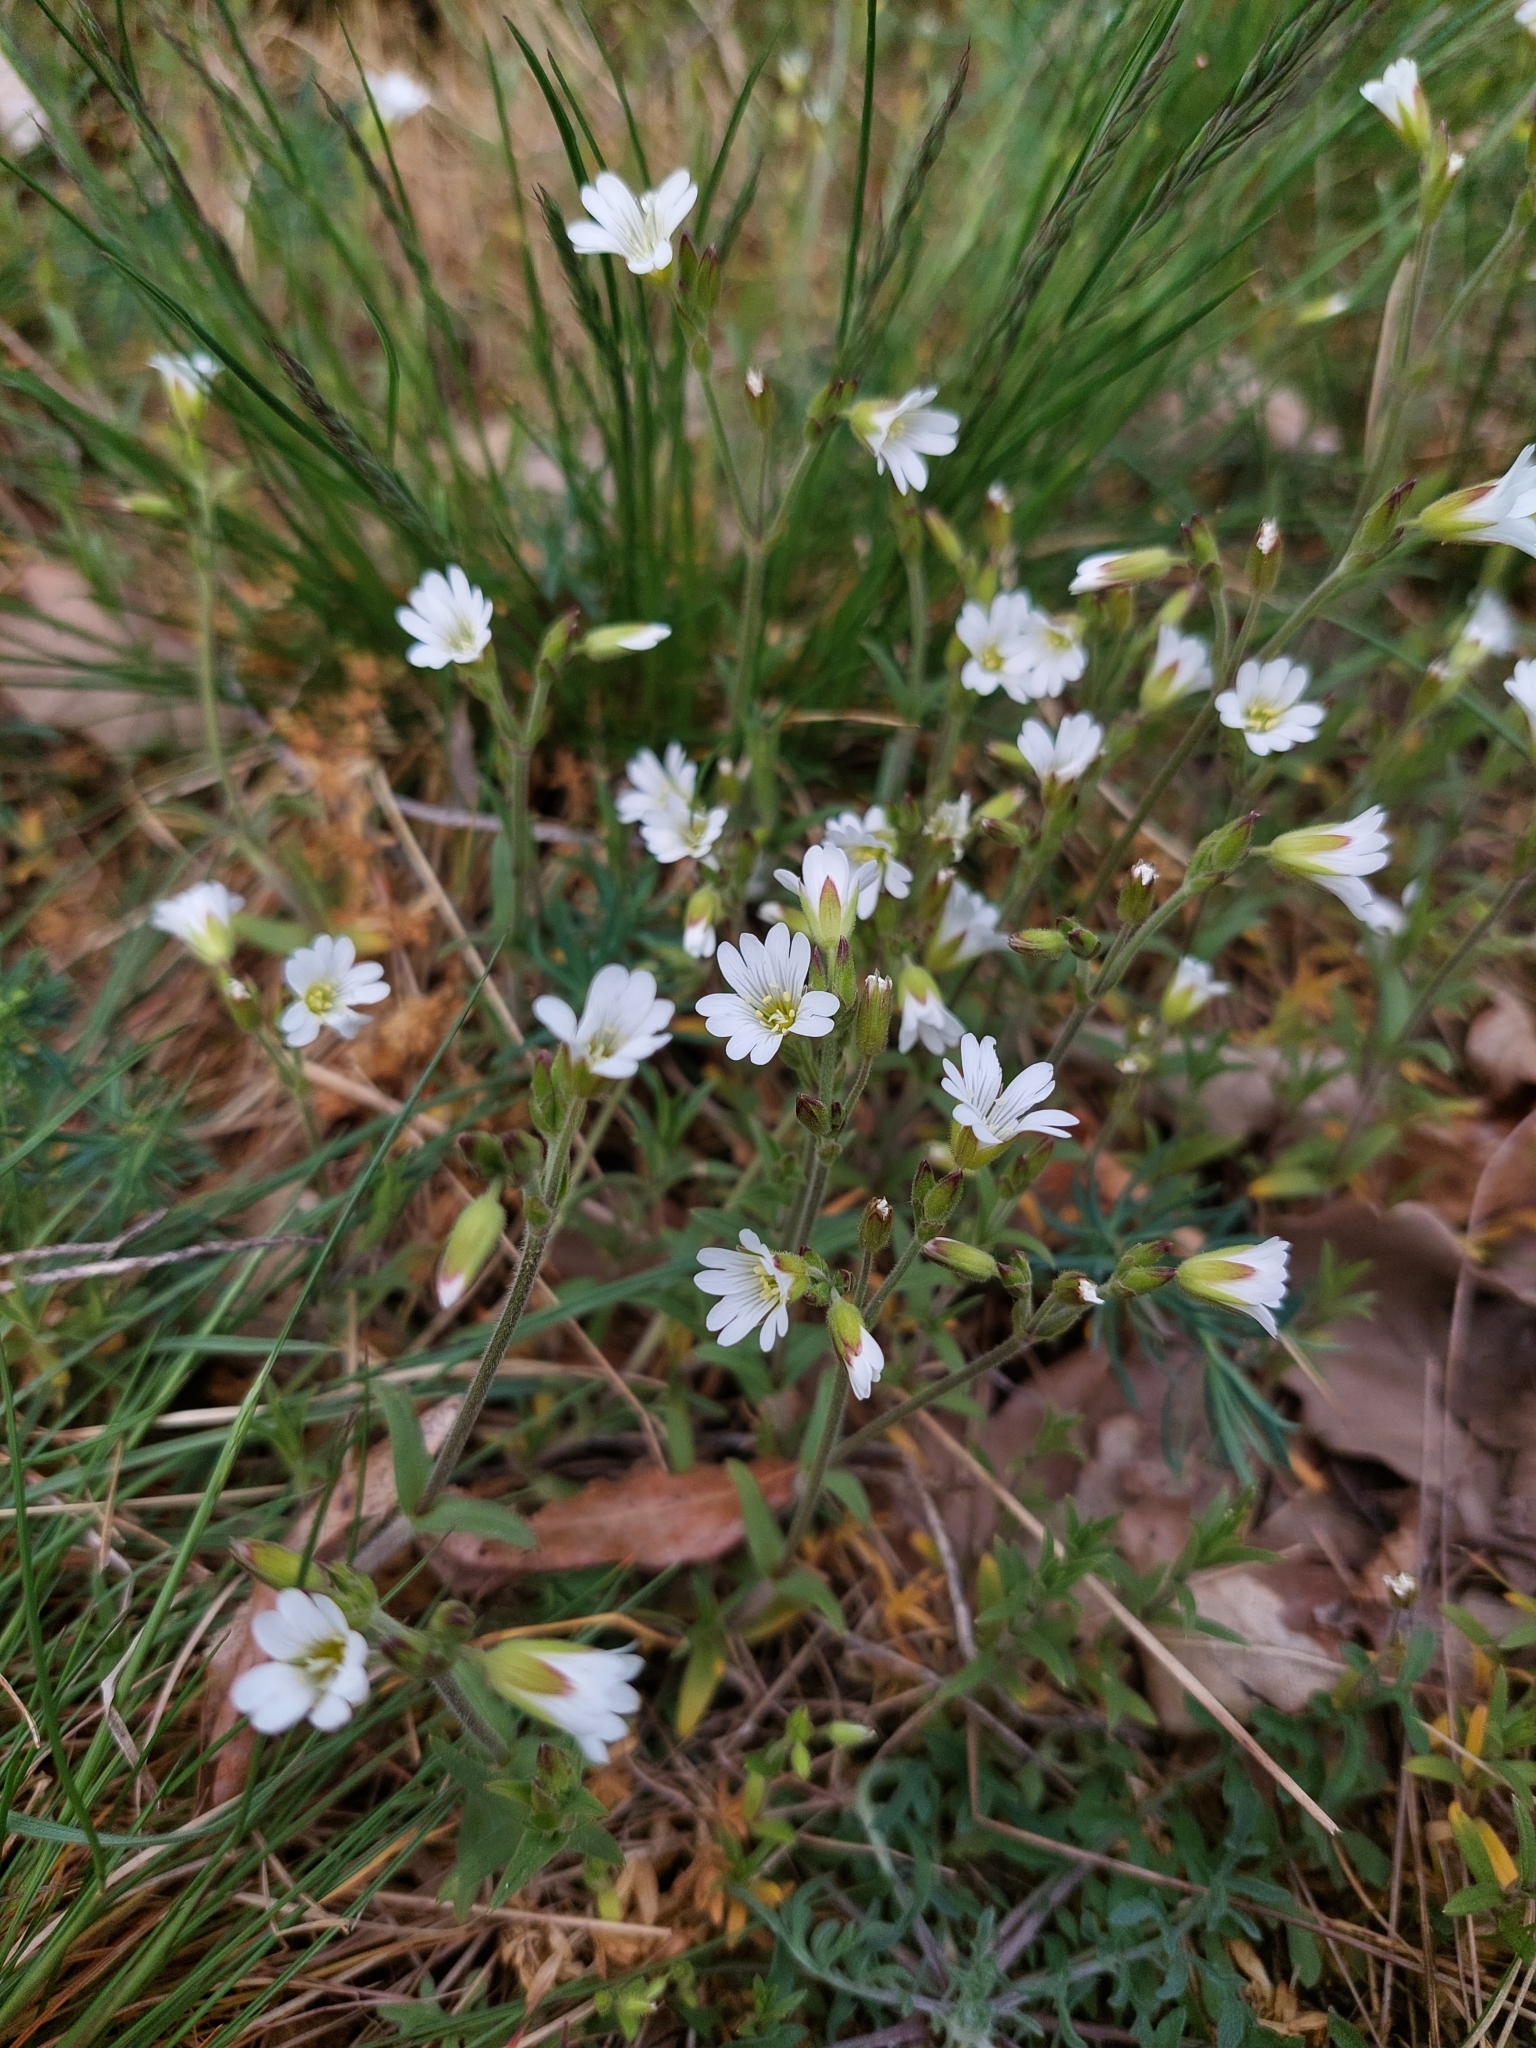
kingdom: Plantae
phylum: Tracheophyta
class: Magnoliopsida
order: Caryophyllales
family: Caryophyllaceae
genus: Cerastium
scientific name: Cerastium arvense
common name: Field mouse-ear
